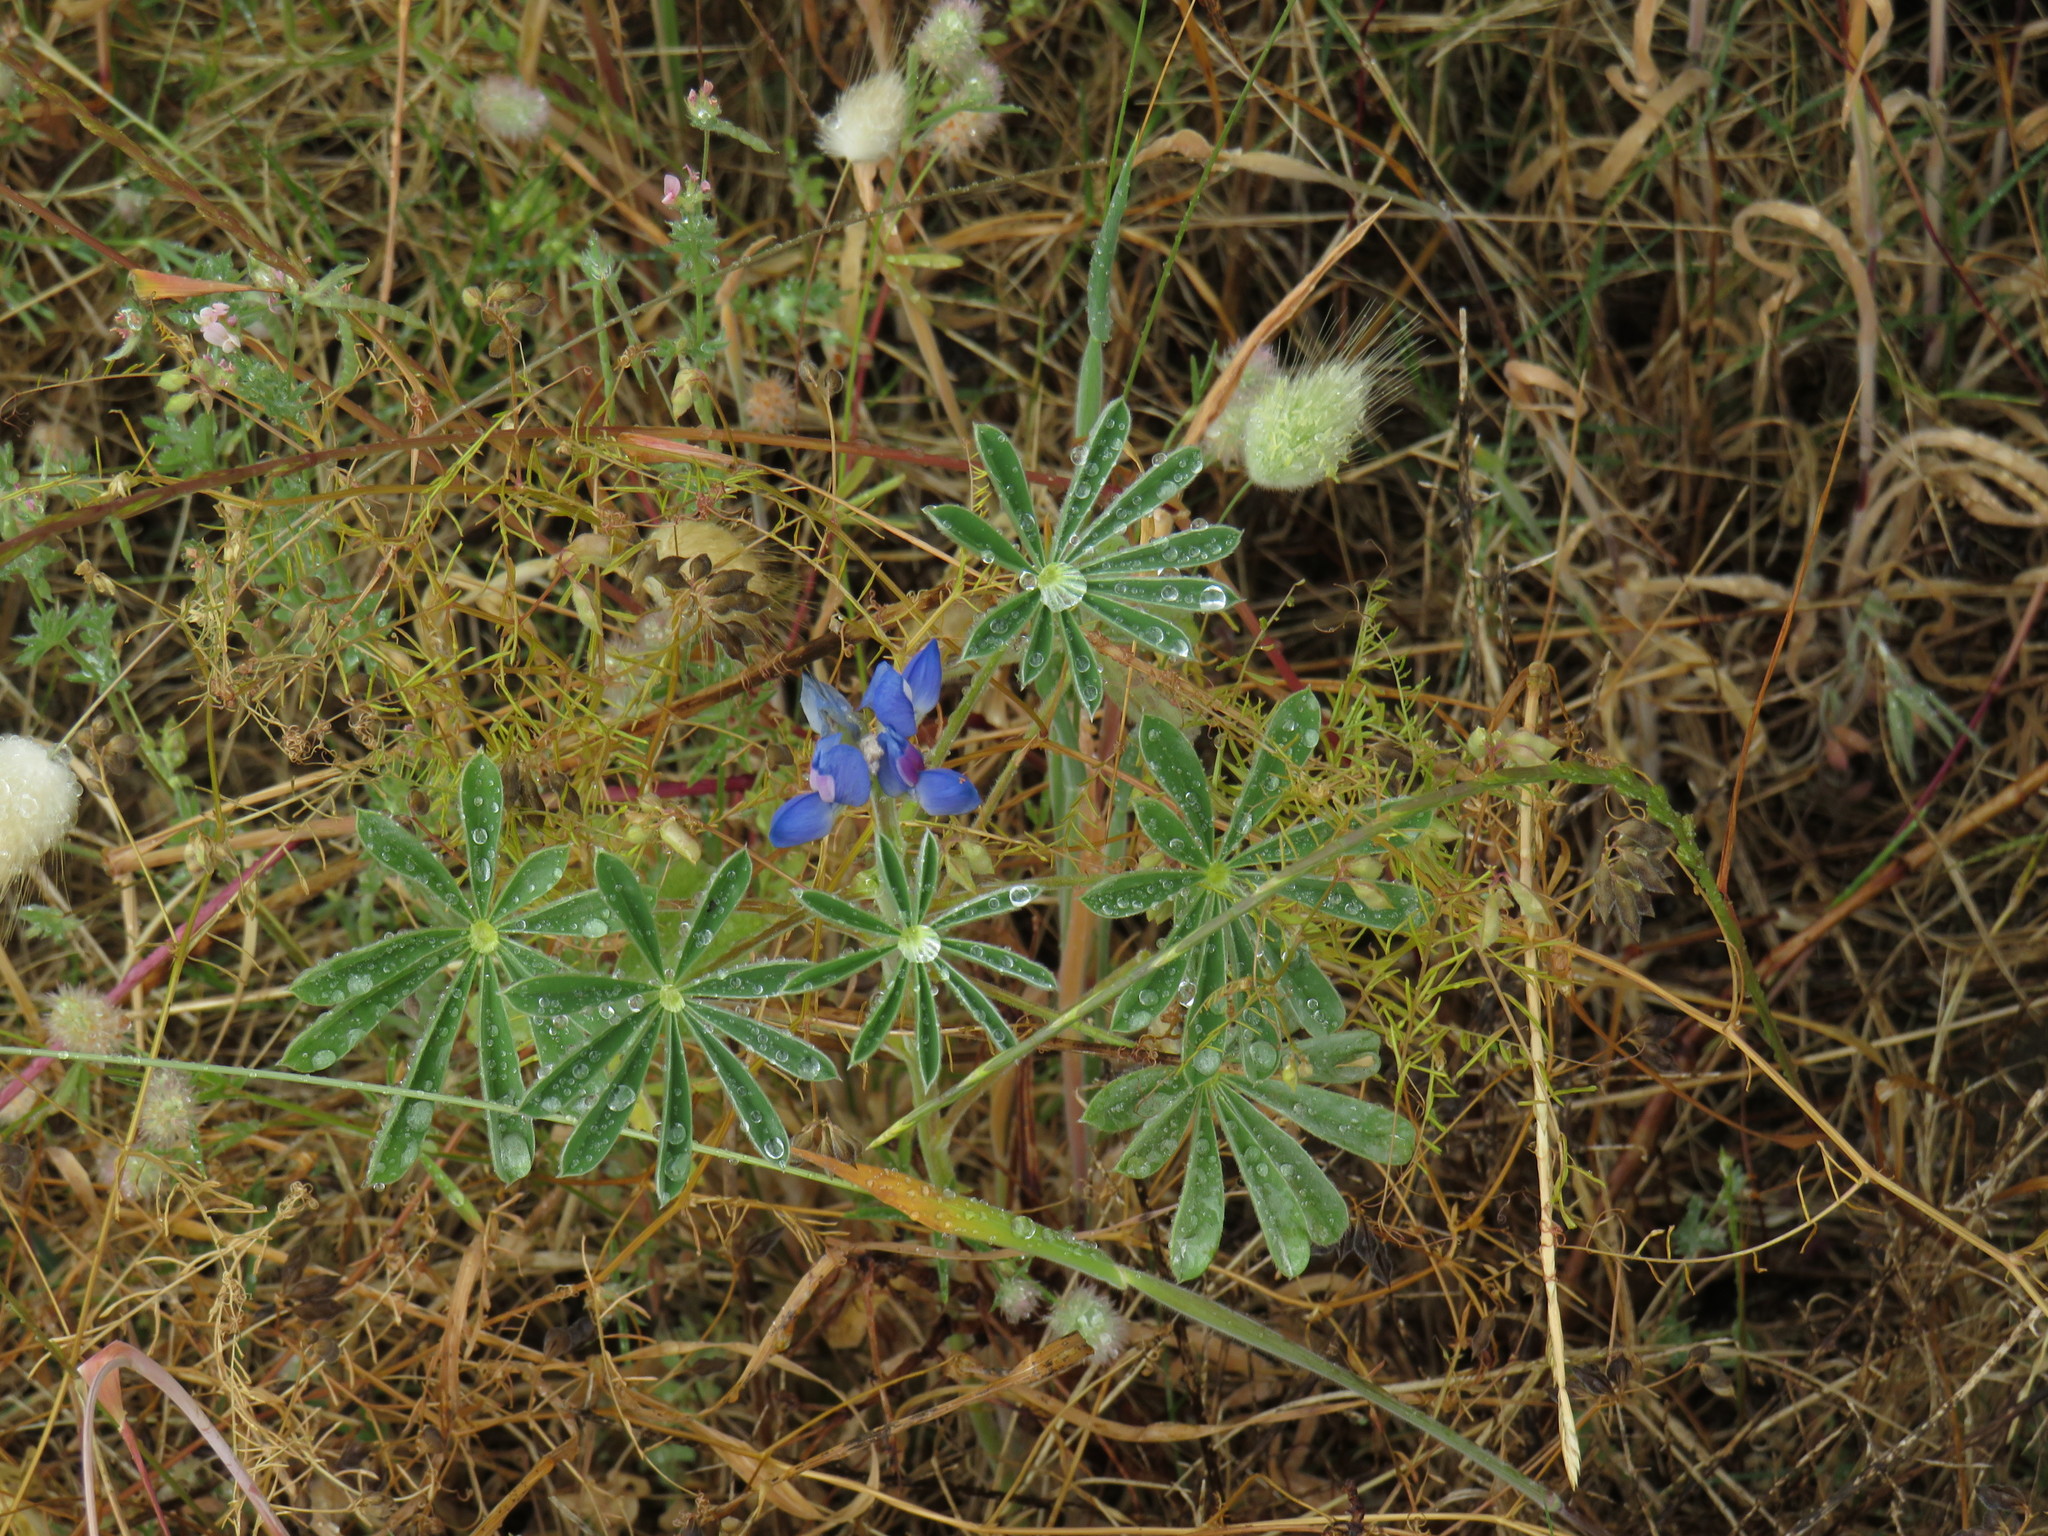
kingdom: Plantae
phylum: Tracheophyta
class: Magnoliopsida
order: Fabales
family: Fabaceae
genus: Lupinus
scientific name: Lupinus cosentinii
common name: Hairy blue lupin
